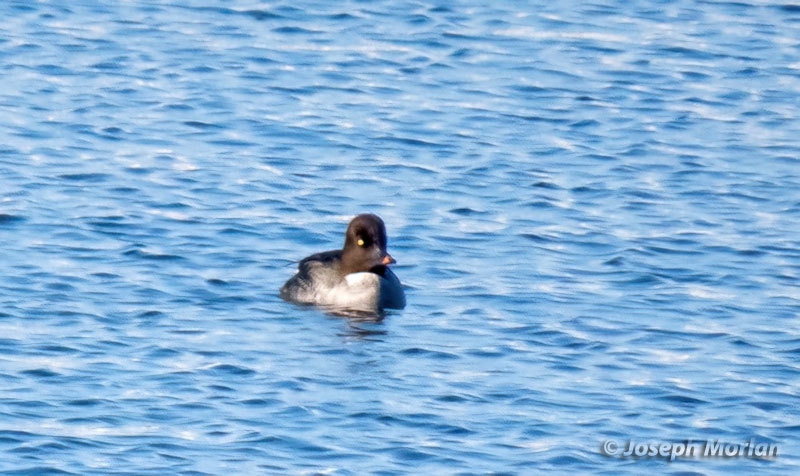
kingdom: Animalia
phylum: Chordata
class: Aves
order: Anseriformes
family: Anatidae
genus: Bucephala
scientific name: Bucephala clangula
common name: Common goldeneye
